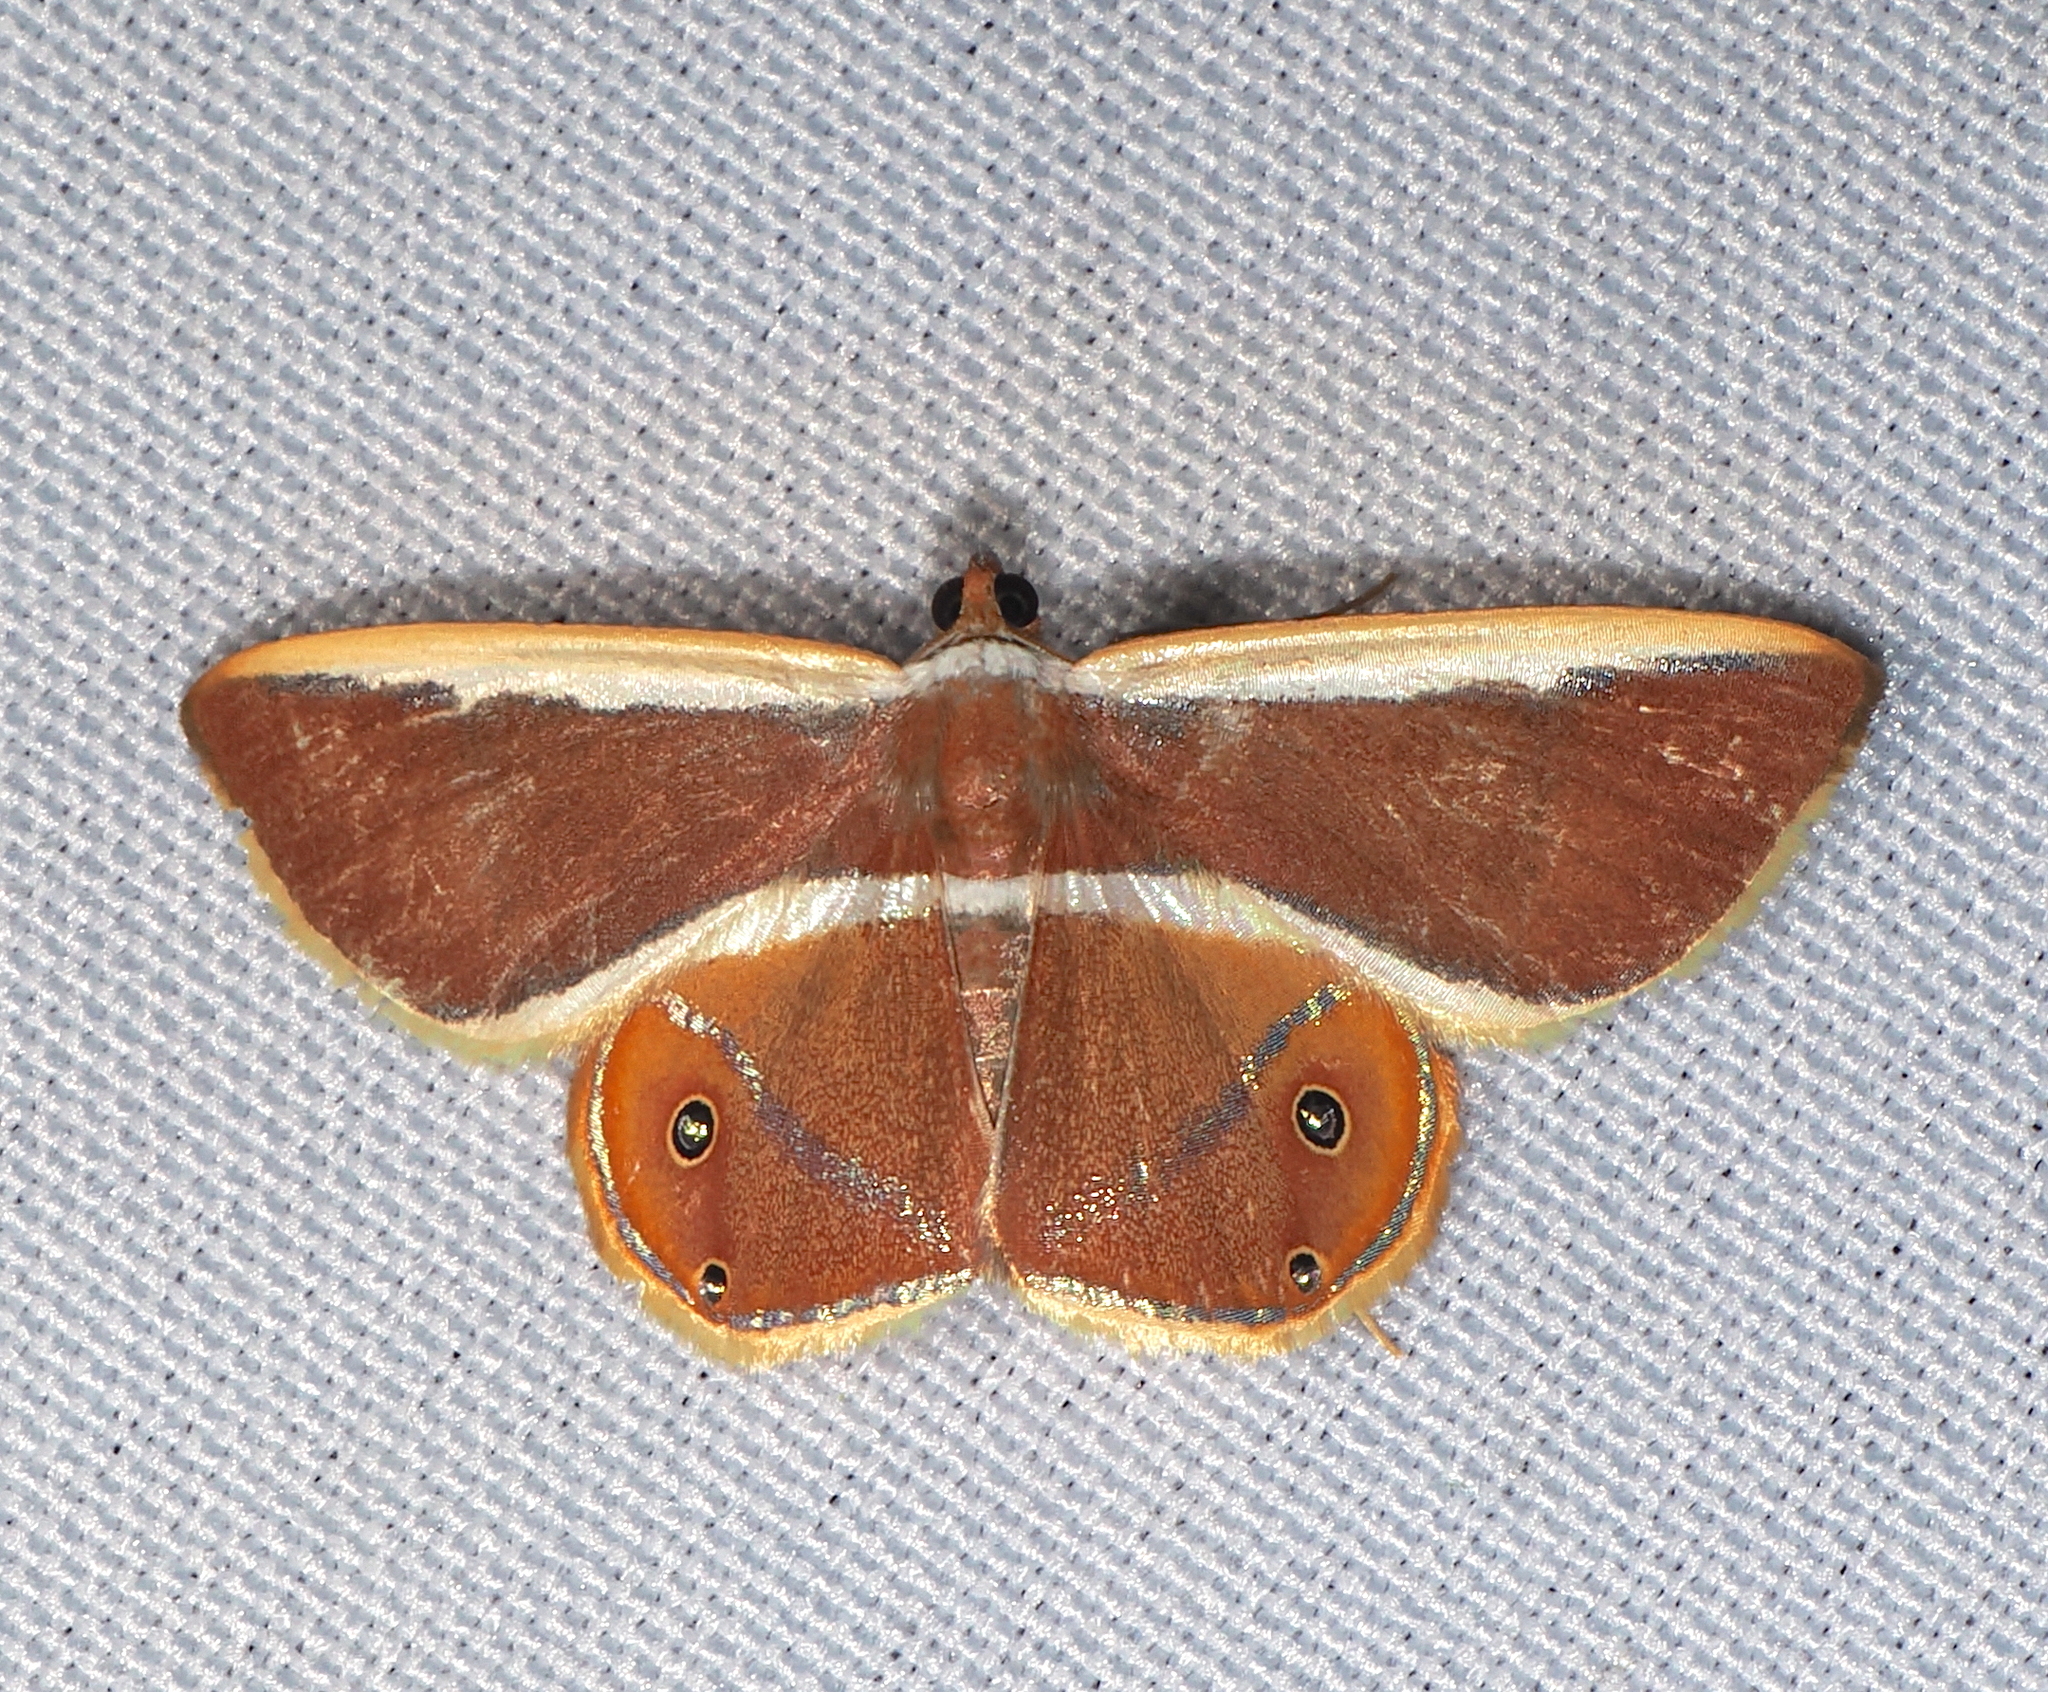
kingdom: Animalia
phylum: Arthropoda
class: Insecta
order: Lepidoptera
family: Geometridae
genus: Opisthoxia
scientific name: Opisthoxia eusiraria
